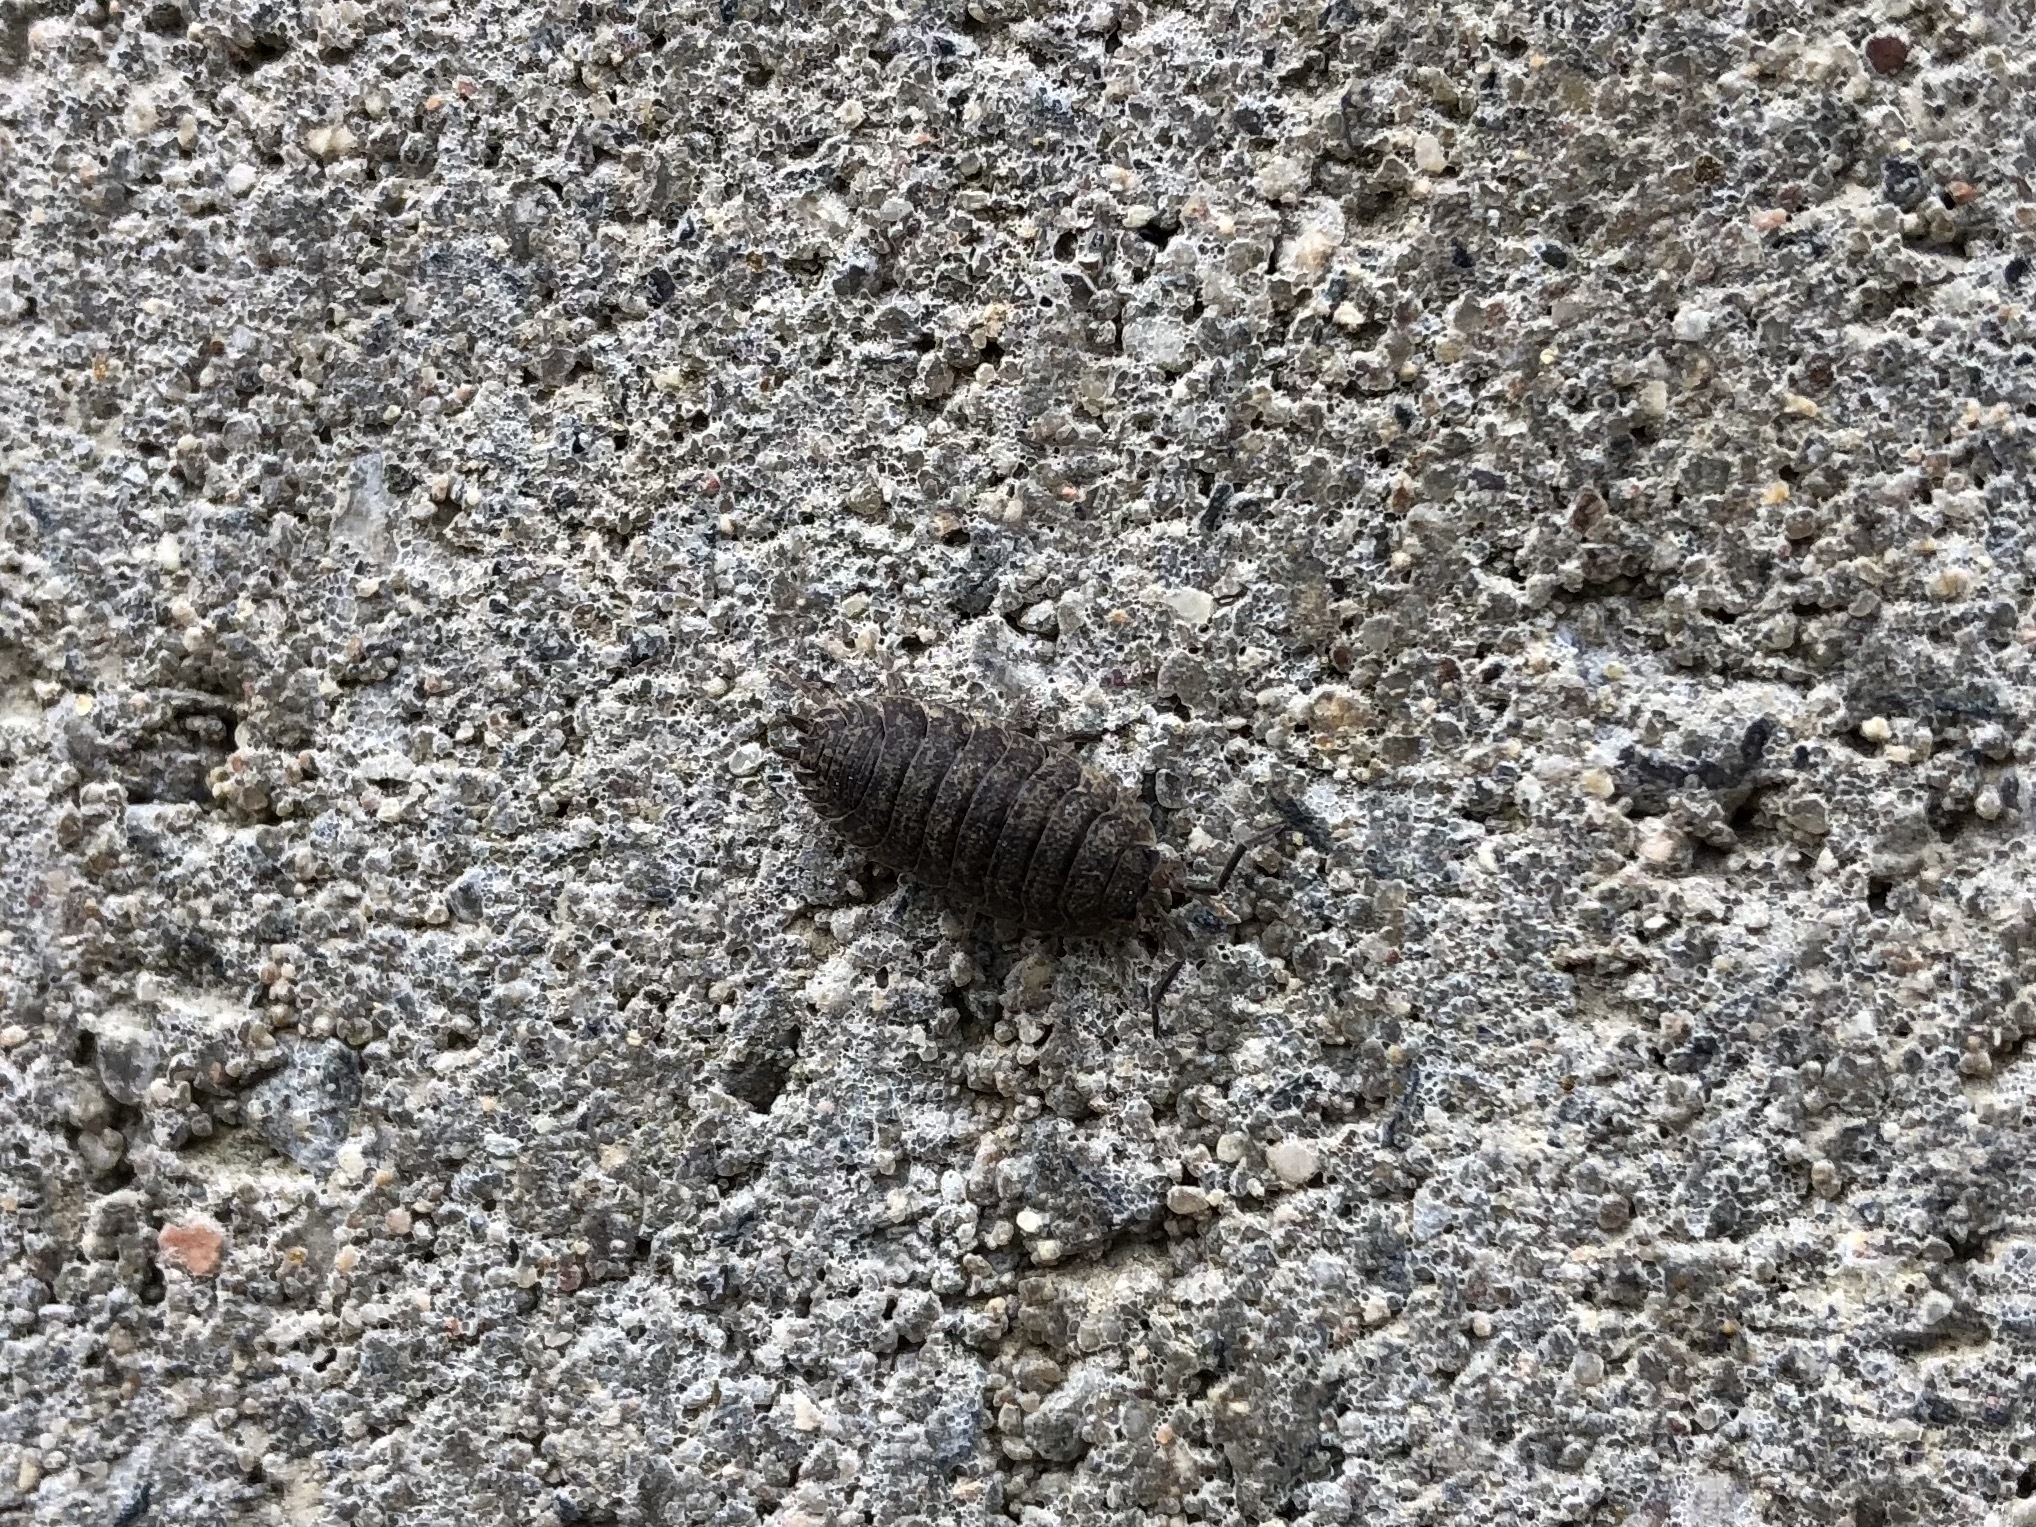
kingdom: Animalia
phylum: Arthropoda
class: Malacostraca
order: Isopoda
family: Porcellionidae
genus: Porcellio
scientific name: Porcellio scaber
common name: Common rough woodlouse
